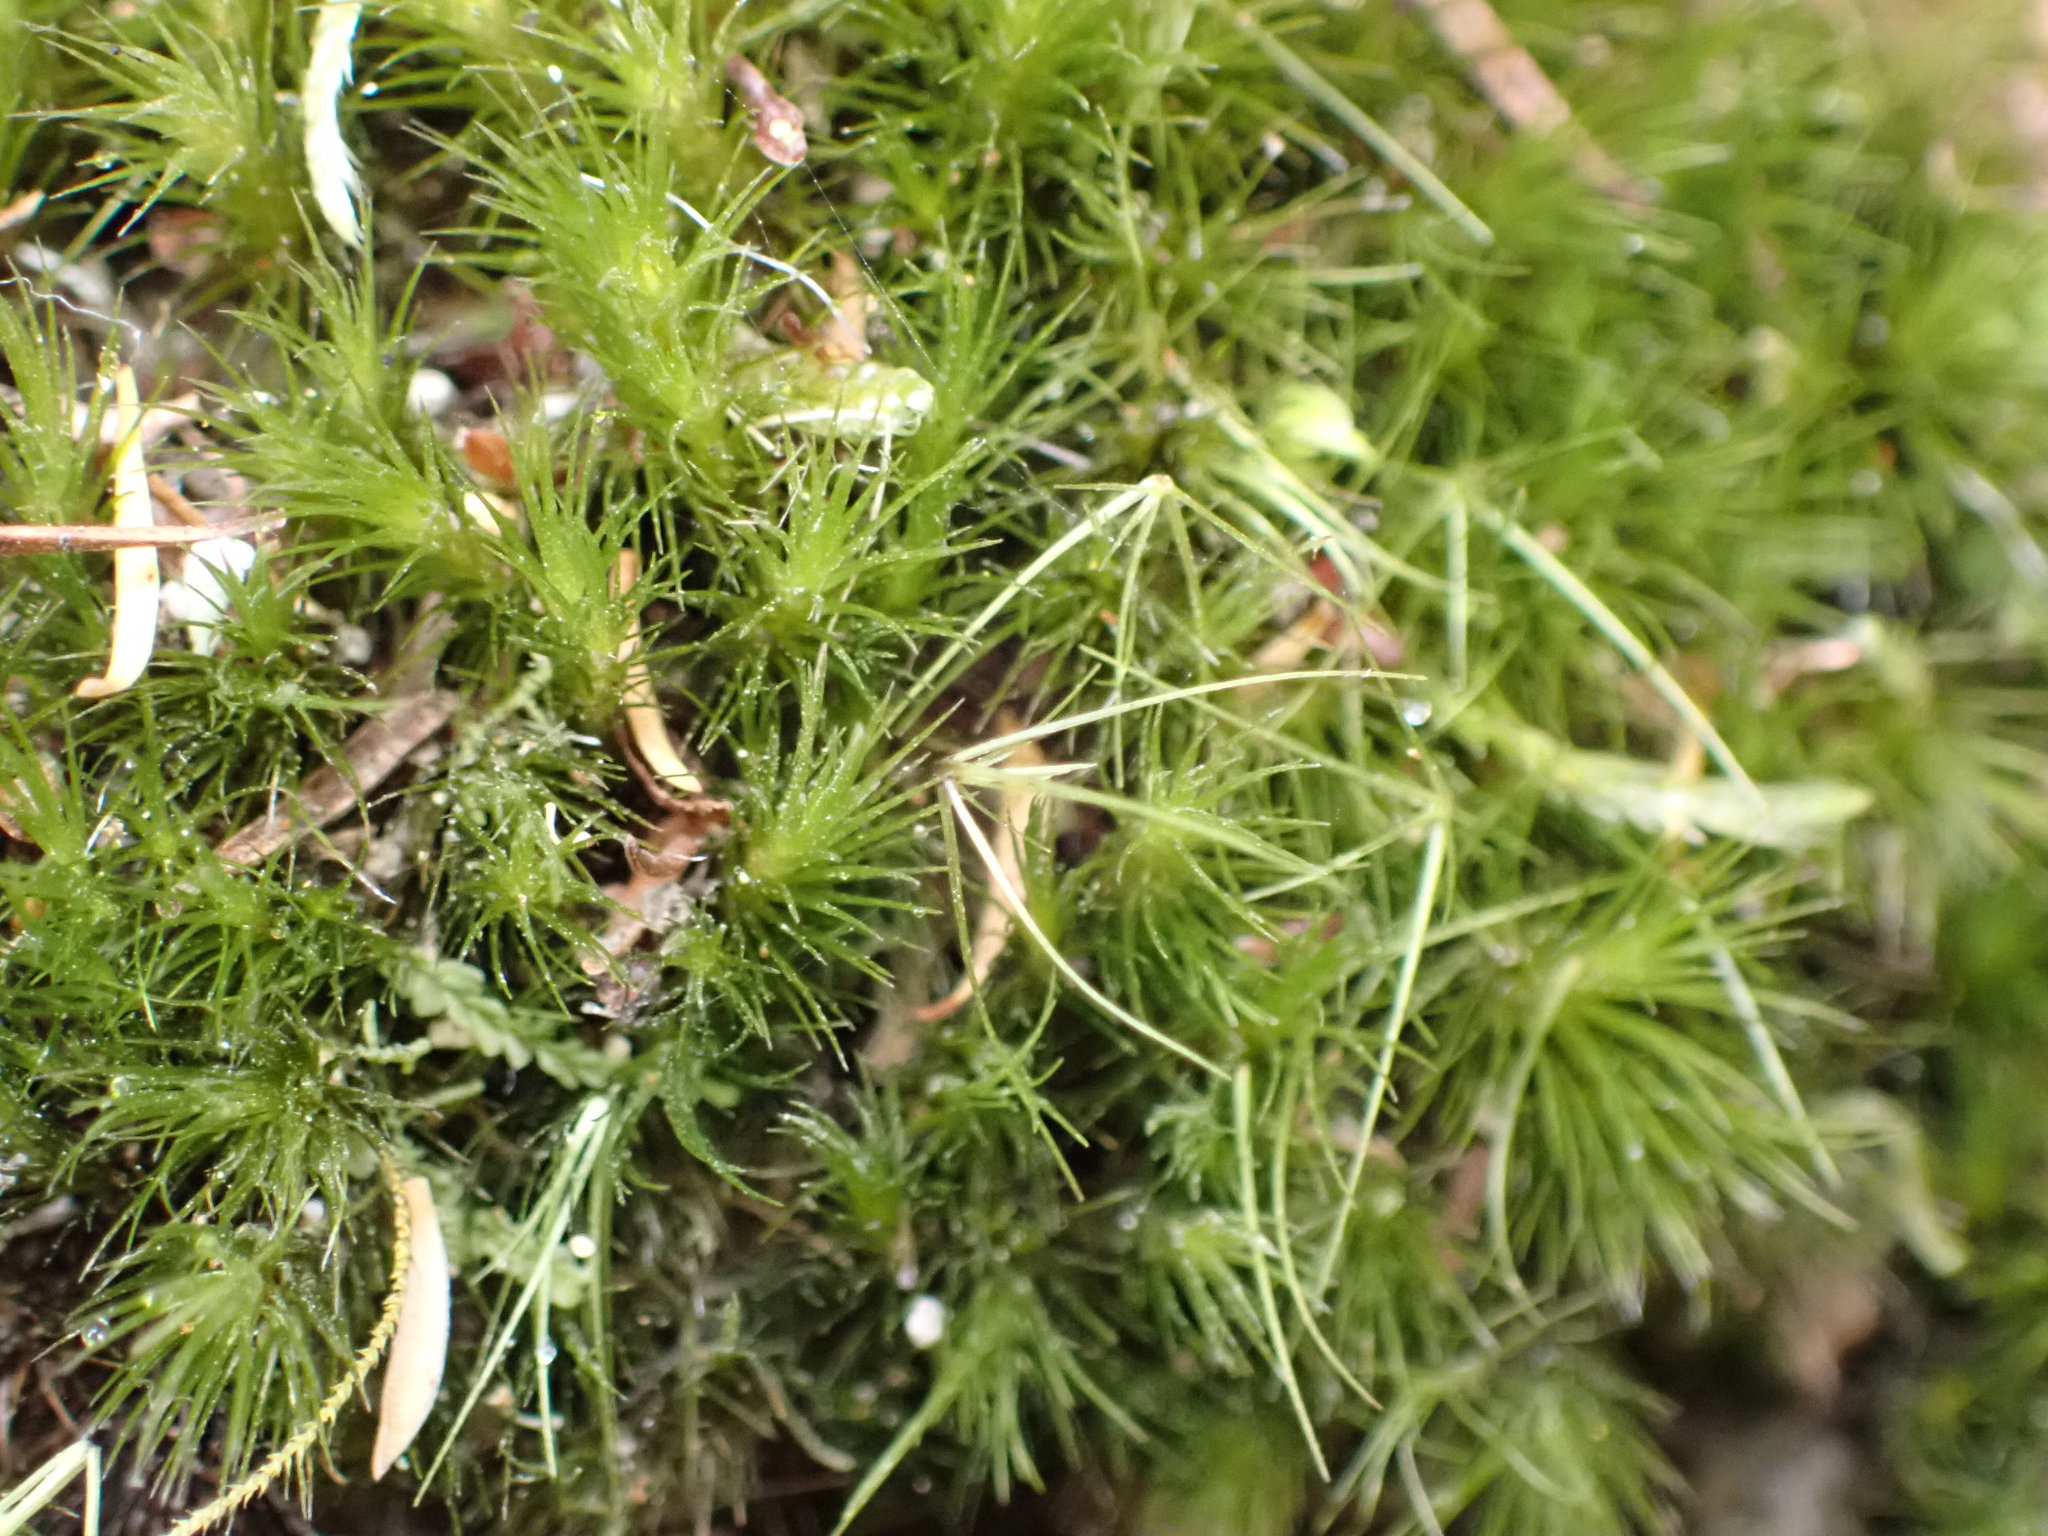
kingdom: Plantae
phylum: Bryophyta
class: Bryopsida
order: Dicranales
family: Leucobryaceae
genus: Campylopus
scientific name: Campylopus clavatus
